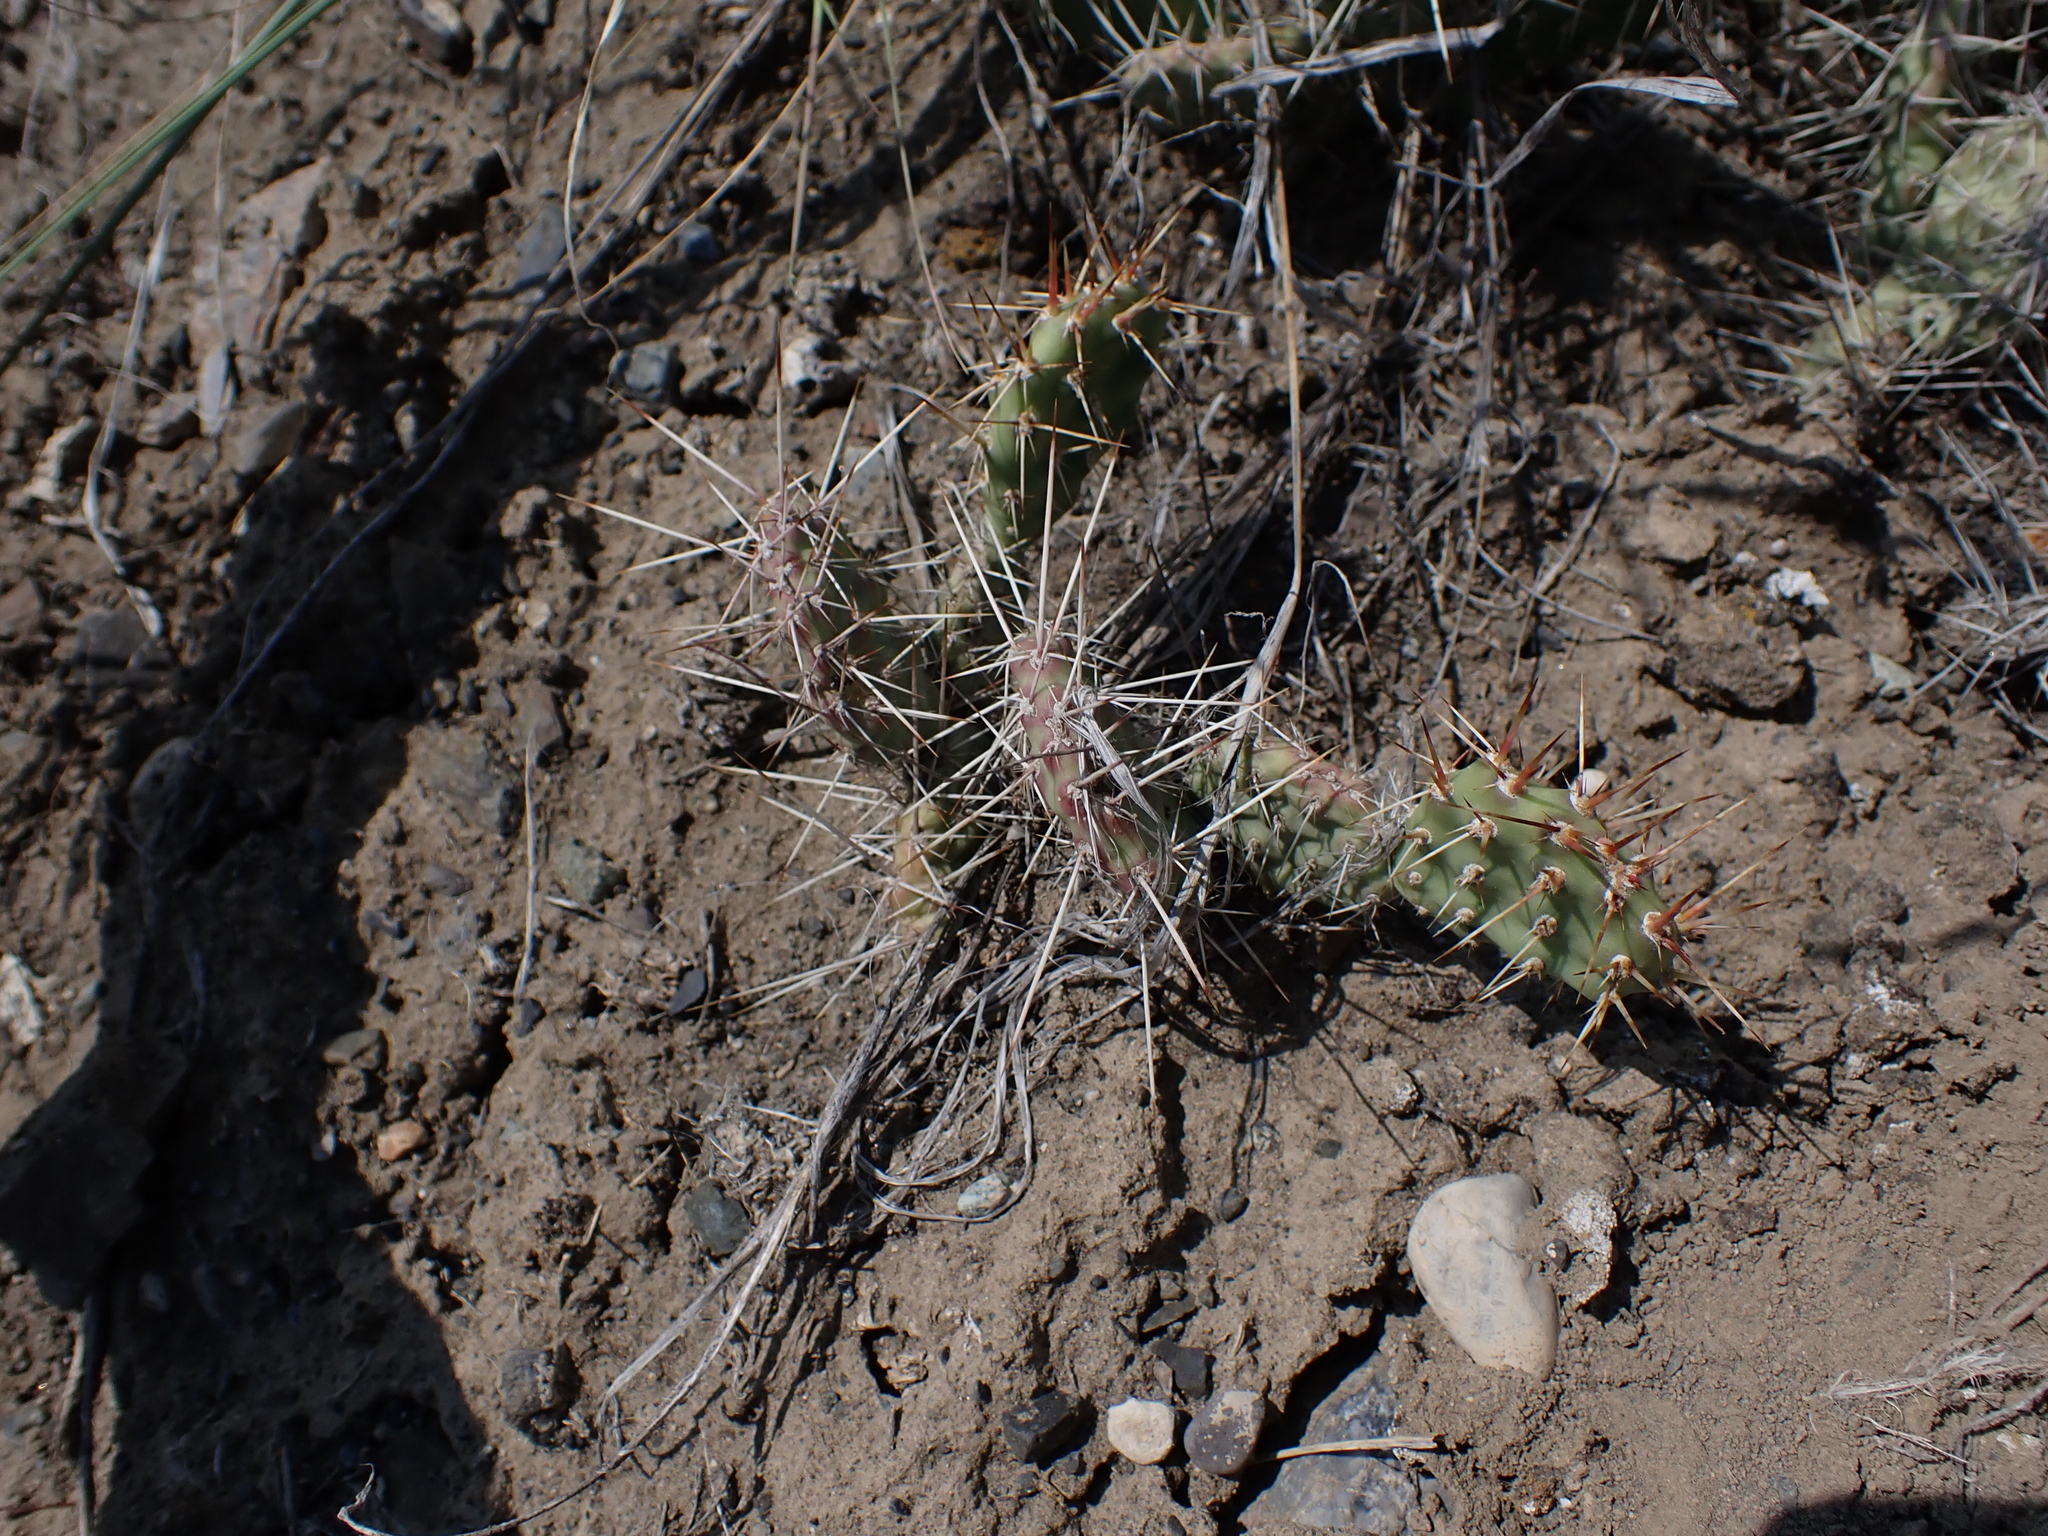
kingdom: Plantae
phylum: Tracheophyta
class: Magnoliopsida
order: Caryophyllales
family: Cactaceae
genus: Opuntia
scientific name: Opuntia columbiana
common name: Columbia prickly-pear
